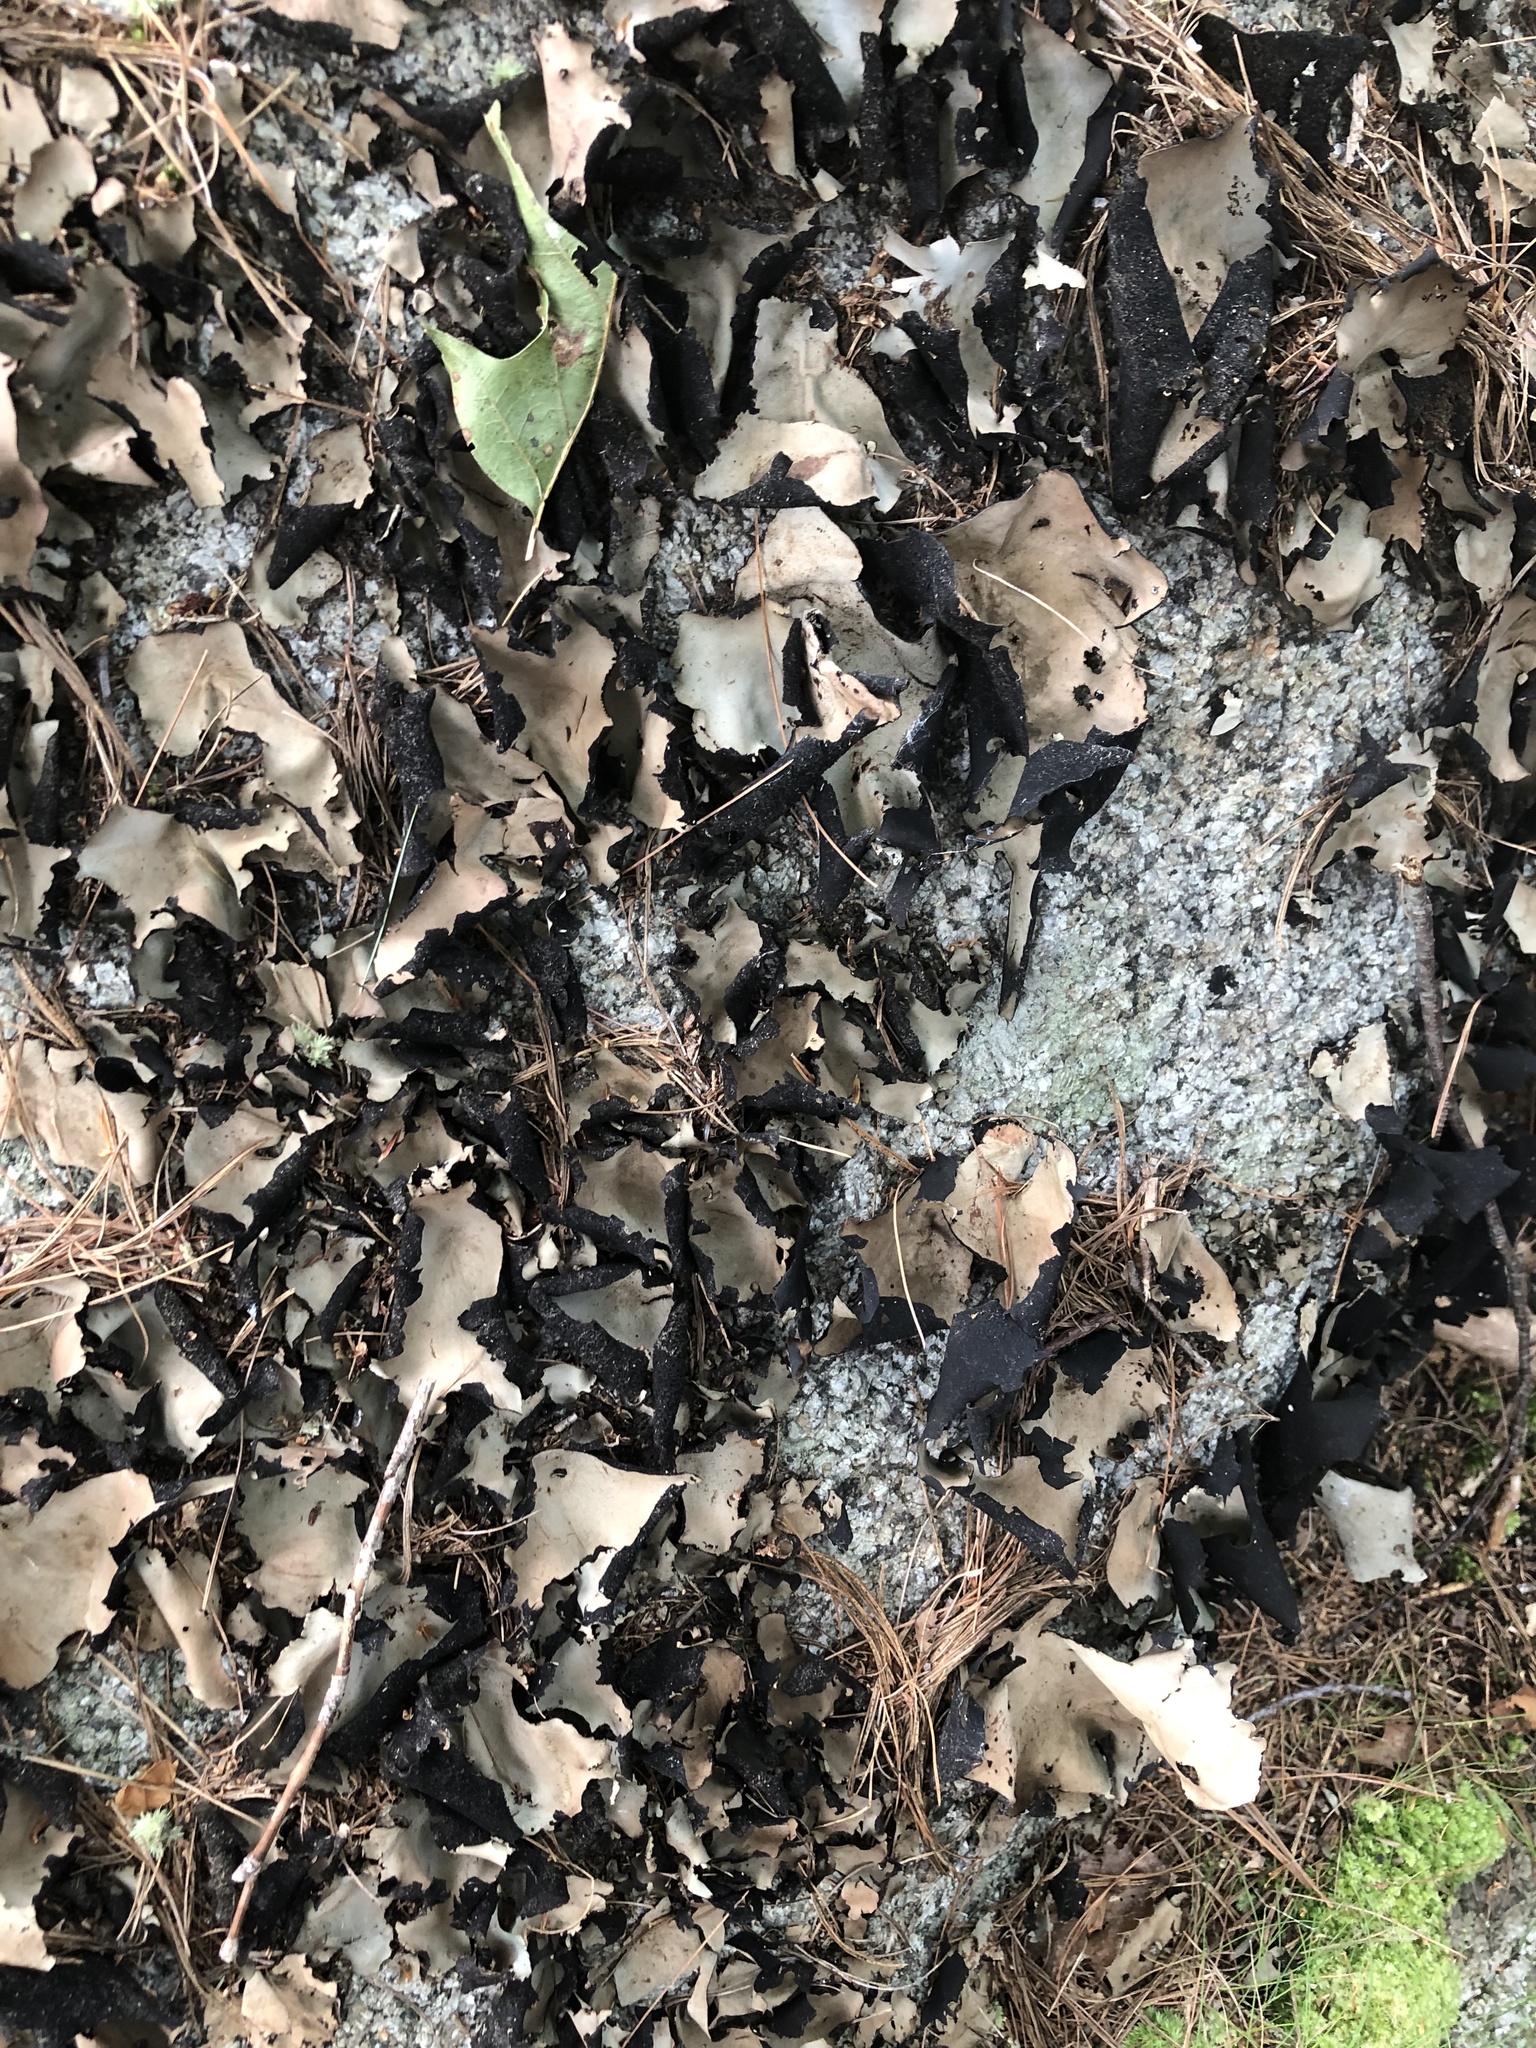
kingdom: Fungi
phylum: Ascomycota
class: Lecanoromycetes
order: Umbilicariales
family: Umbilicariaceae
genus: Umbilicaria
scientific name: Umbilicaria mammulata
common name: Smooth rock tripe
